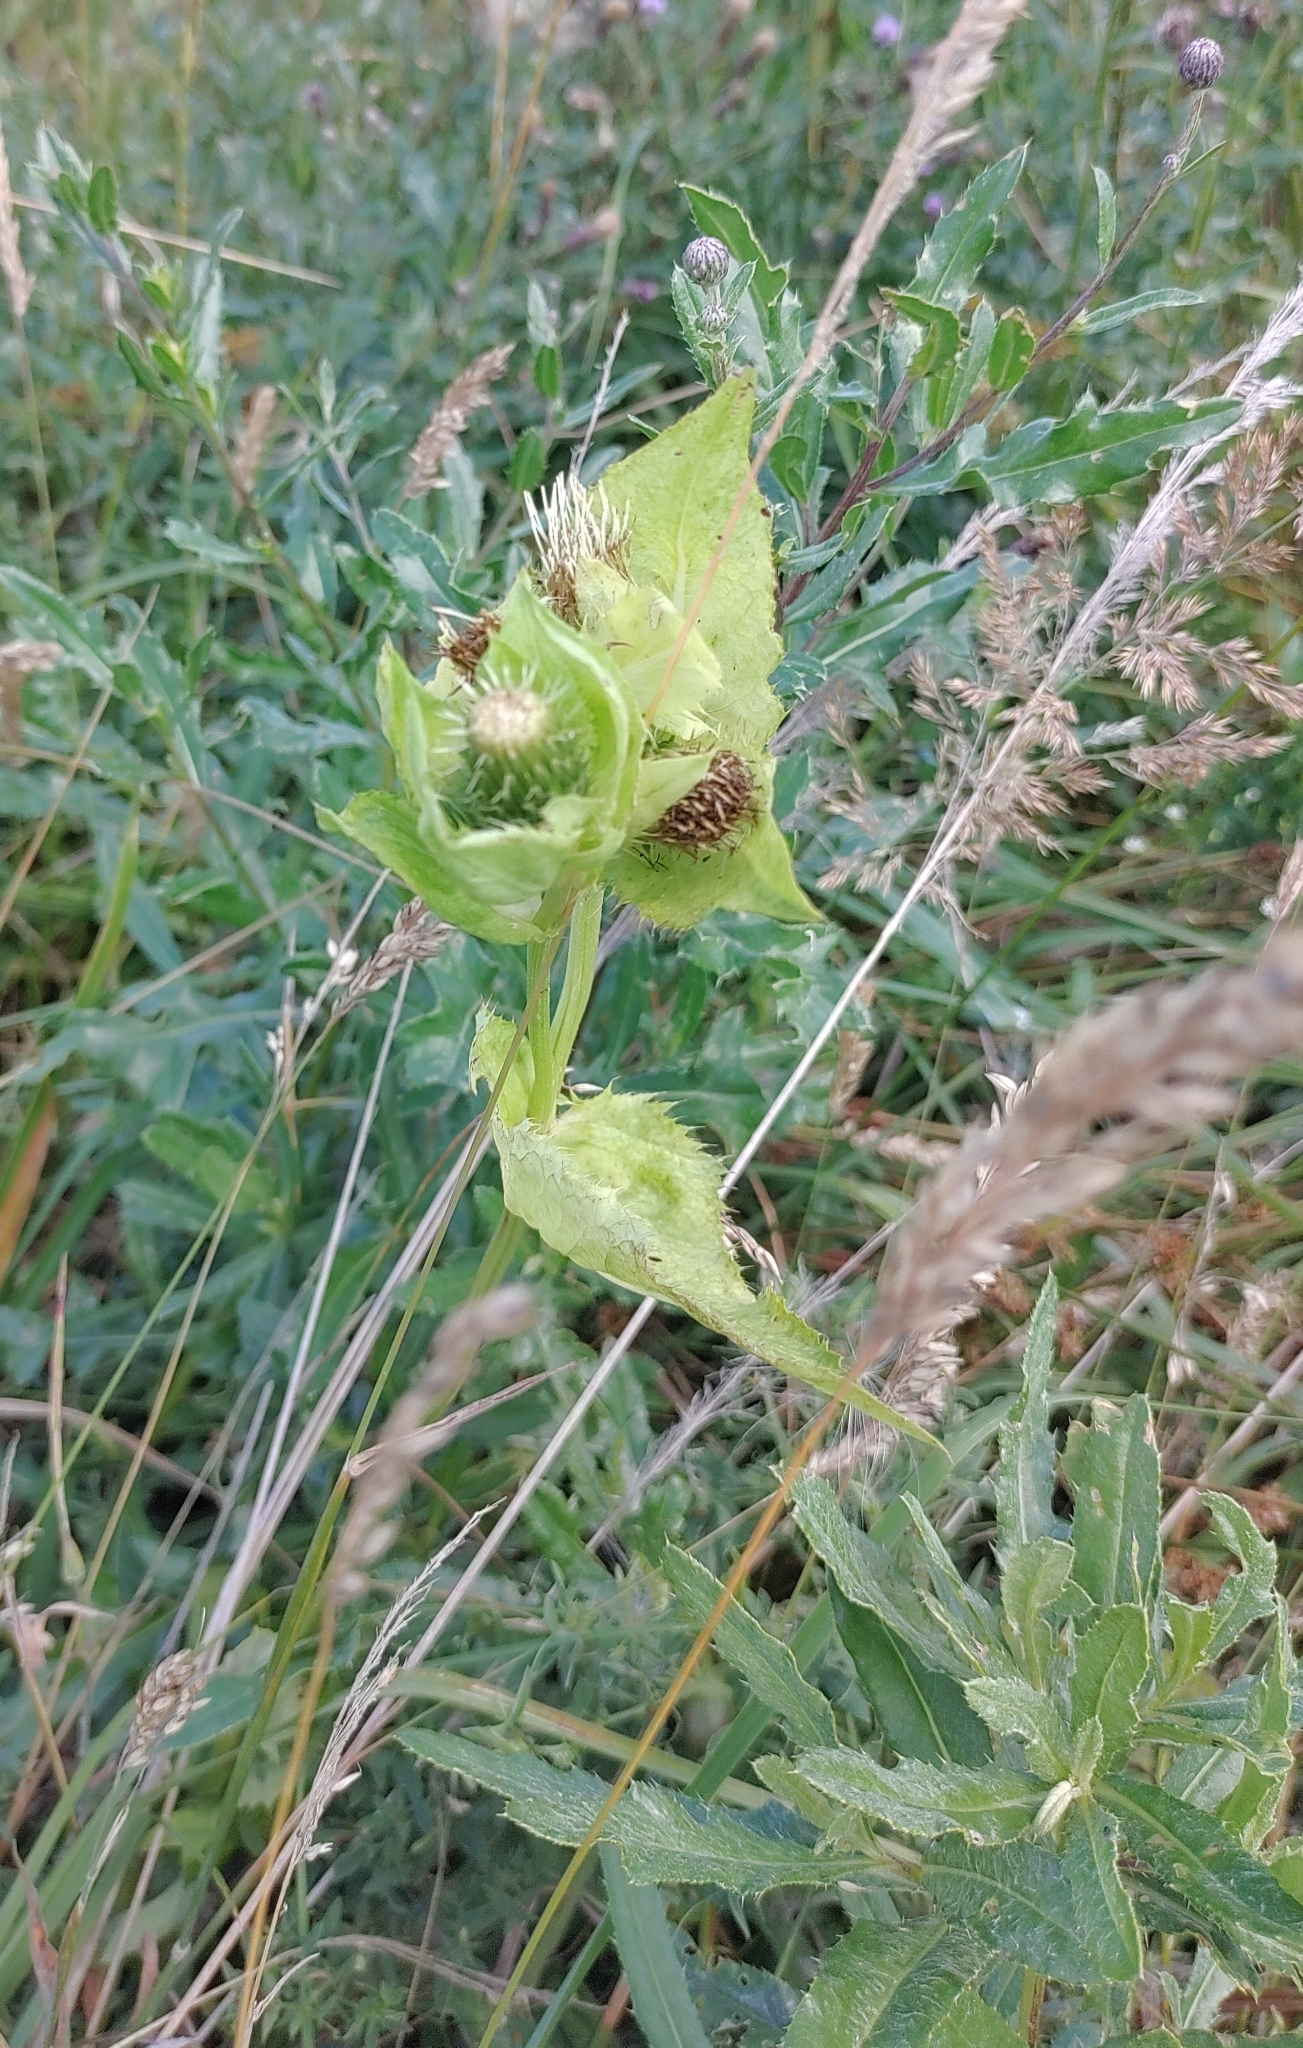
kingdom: Plantae
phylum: Tracheophyta
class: Magnoliopsida
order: Asterales
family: Asteraceae
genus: Cirsium
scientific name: Cirsium oleraceum
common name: Cabbage thistle
